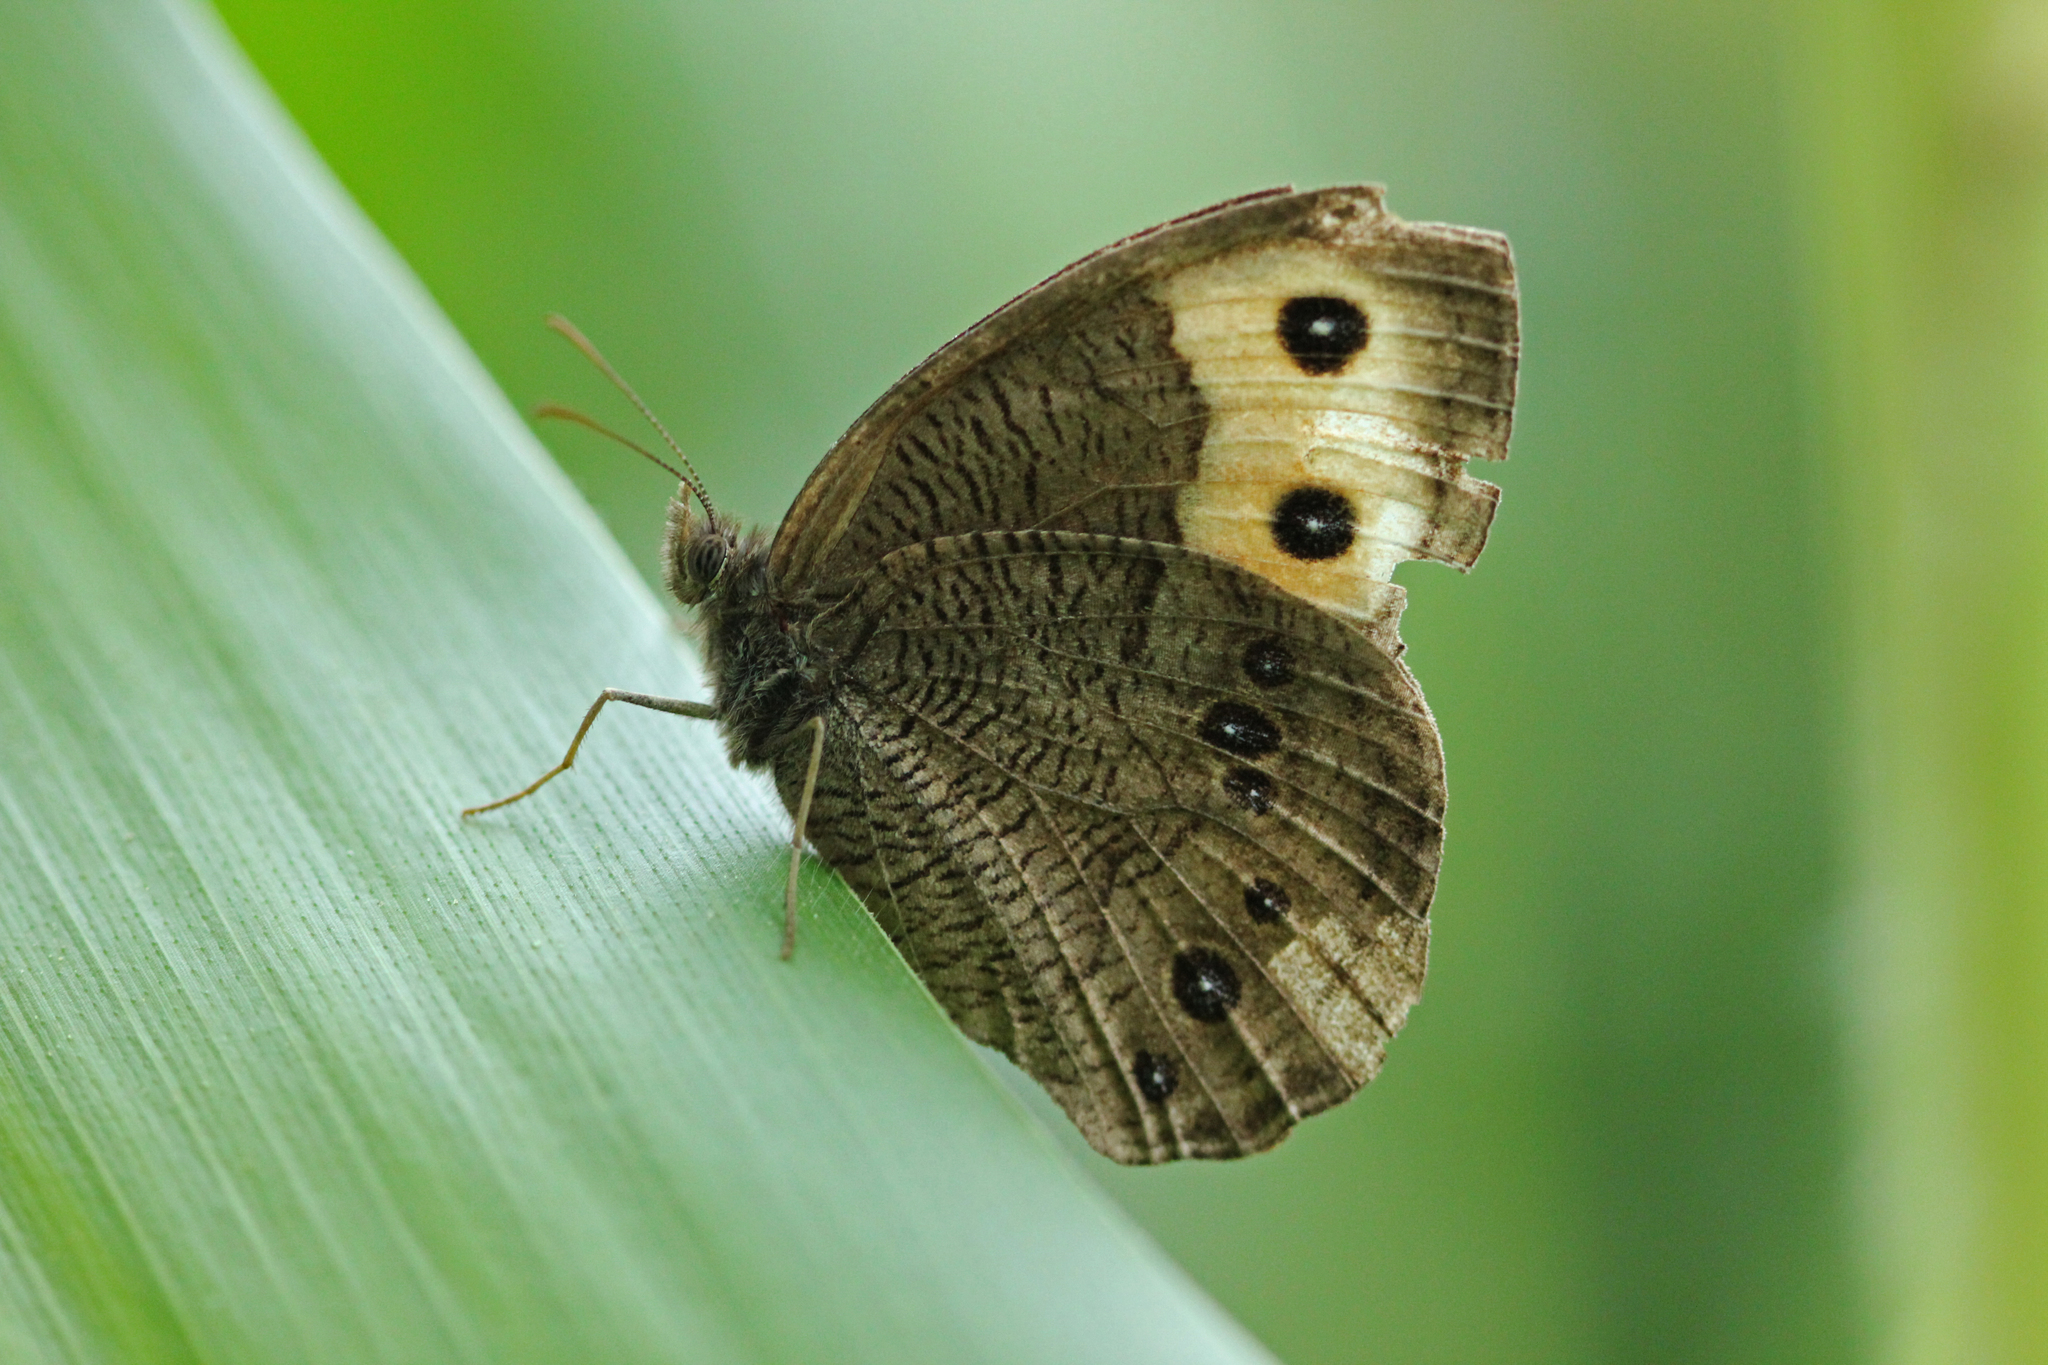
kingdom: Animalia
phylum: Arthropoda
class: Insecta
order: Lepidoptera
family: Nymphalidae
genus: Cercyonis
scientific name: Cercyonis pegala
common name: Common wood-nymph
